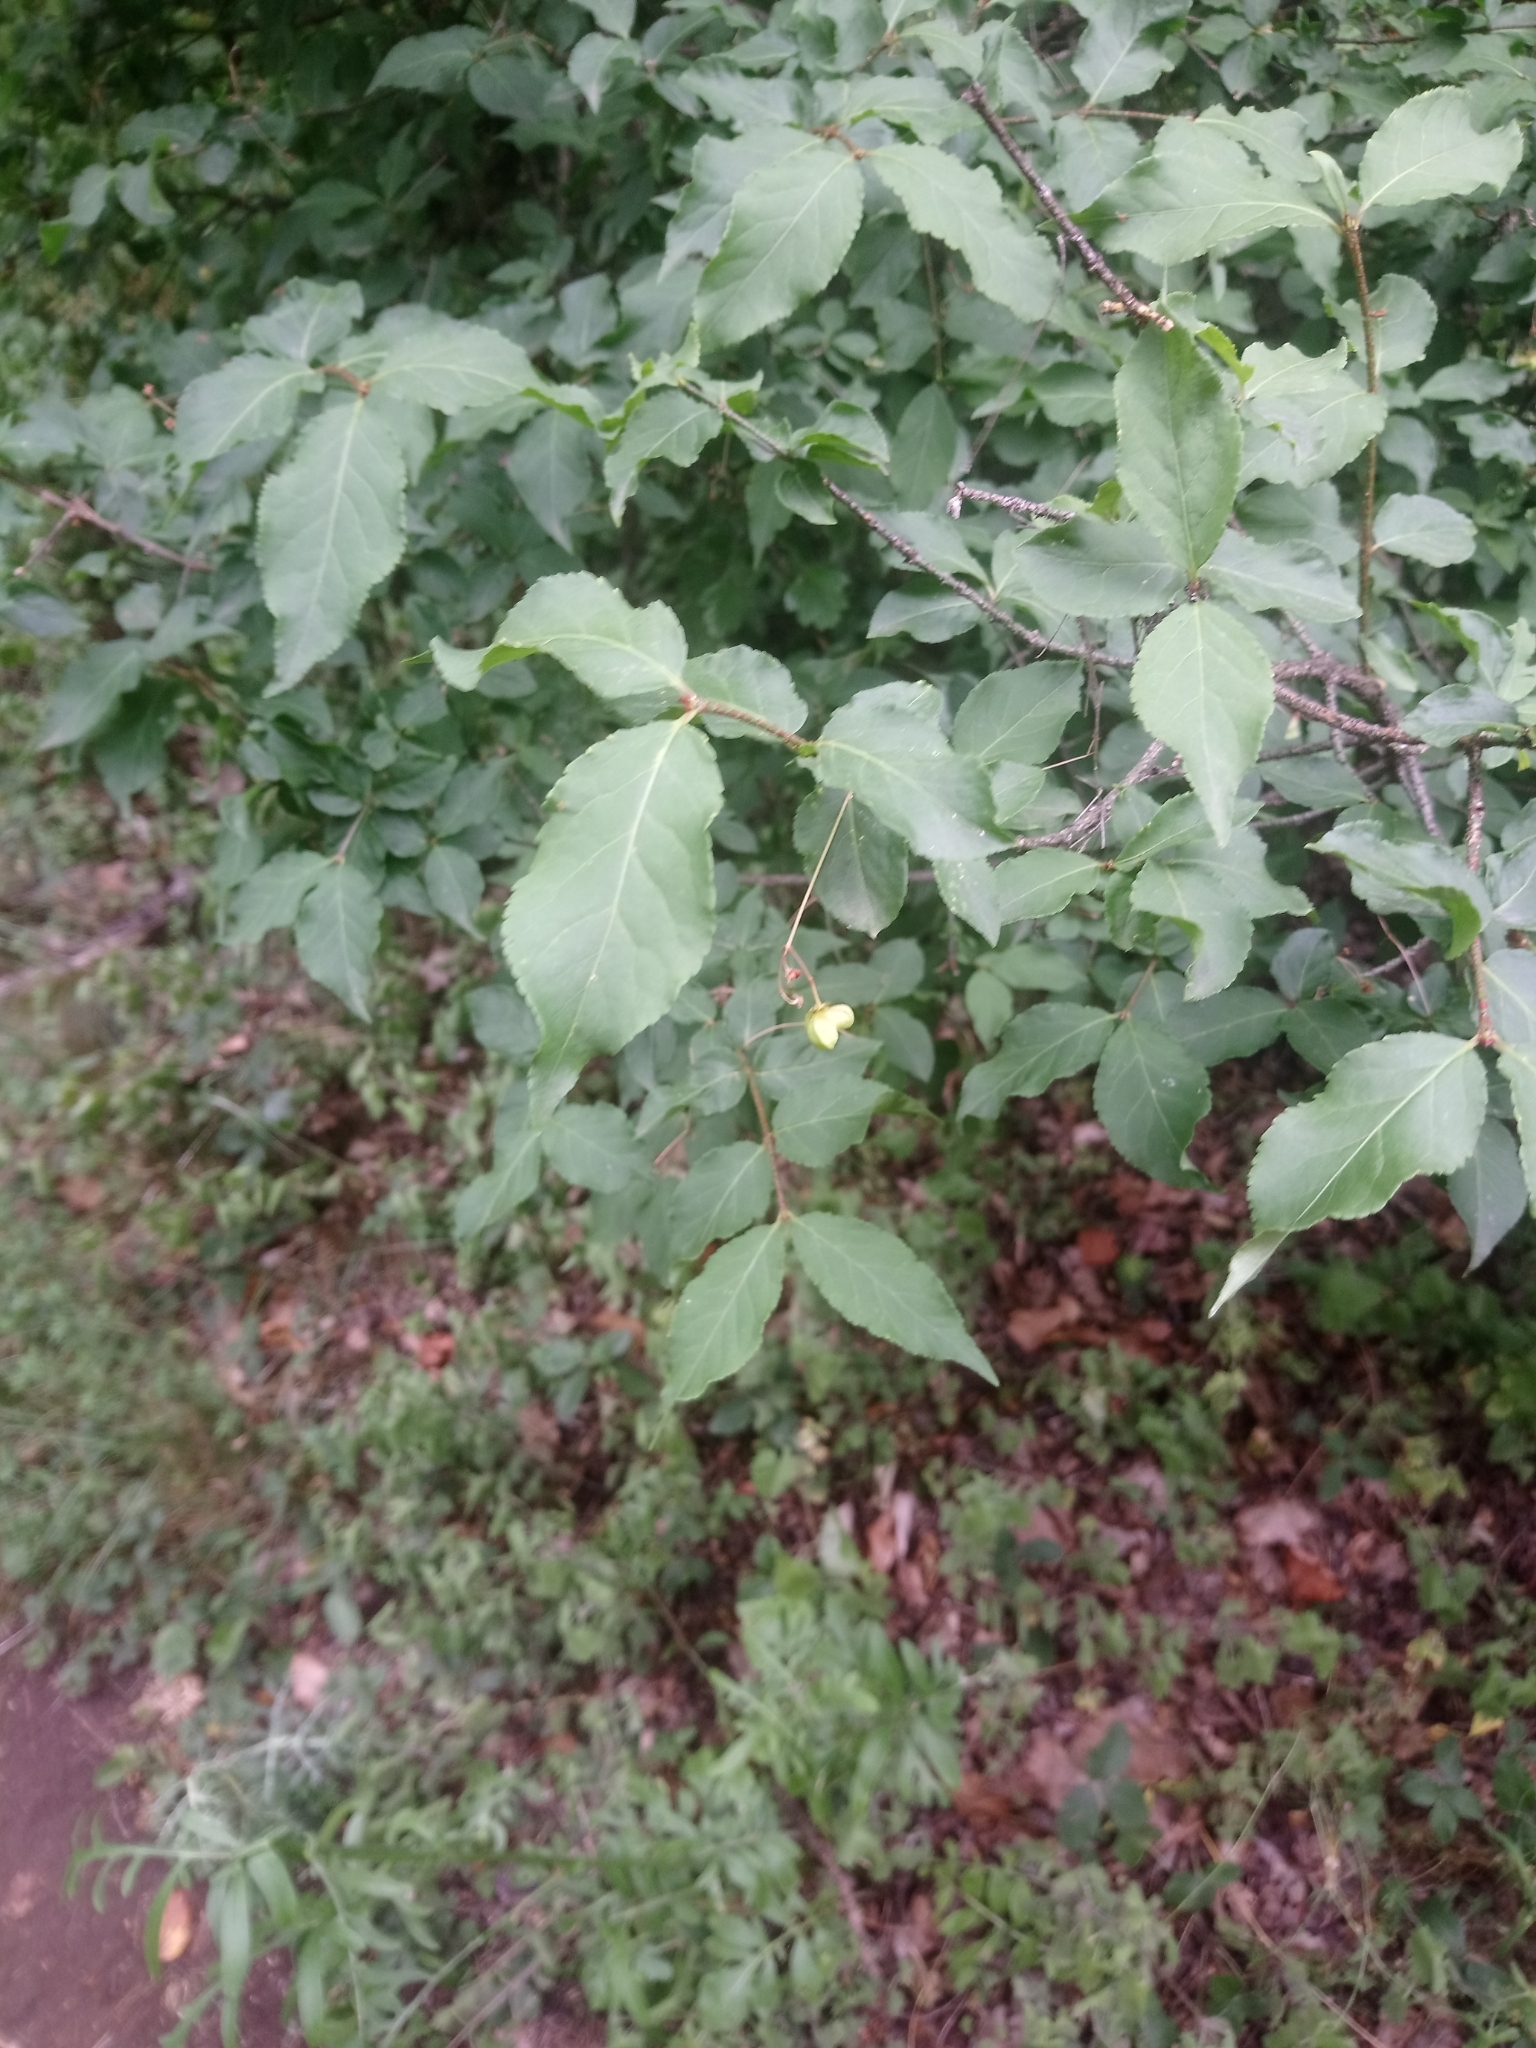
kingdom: Plantae
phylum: Tracheophyta
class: Magnoliopsida
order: Celastrales
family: Celastraceae
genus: Euonymus
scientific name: Euonymus verrucosus
